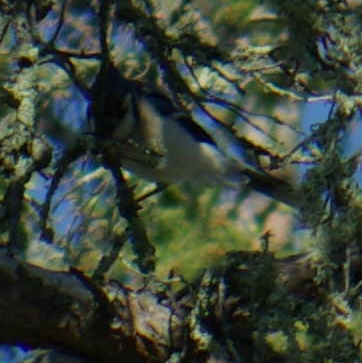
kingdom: Animalia
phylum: Chordata
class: Aves
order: Passeriformes
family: Corvidae
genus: Cyanocitta
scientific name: Cyanocitta cristata
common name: Blue jay
